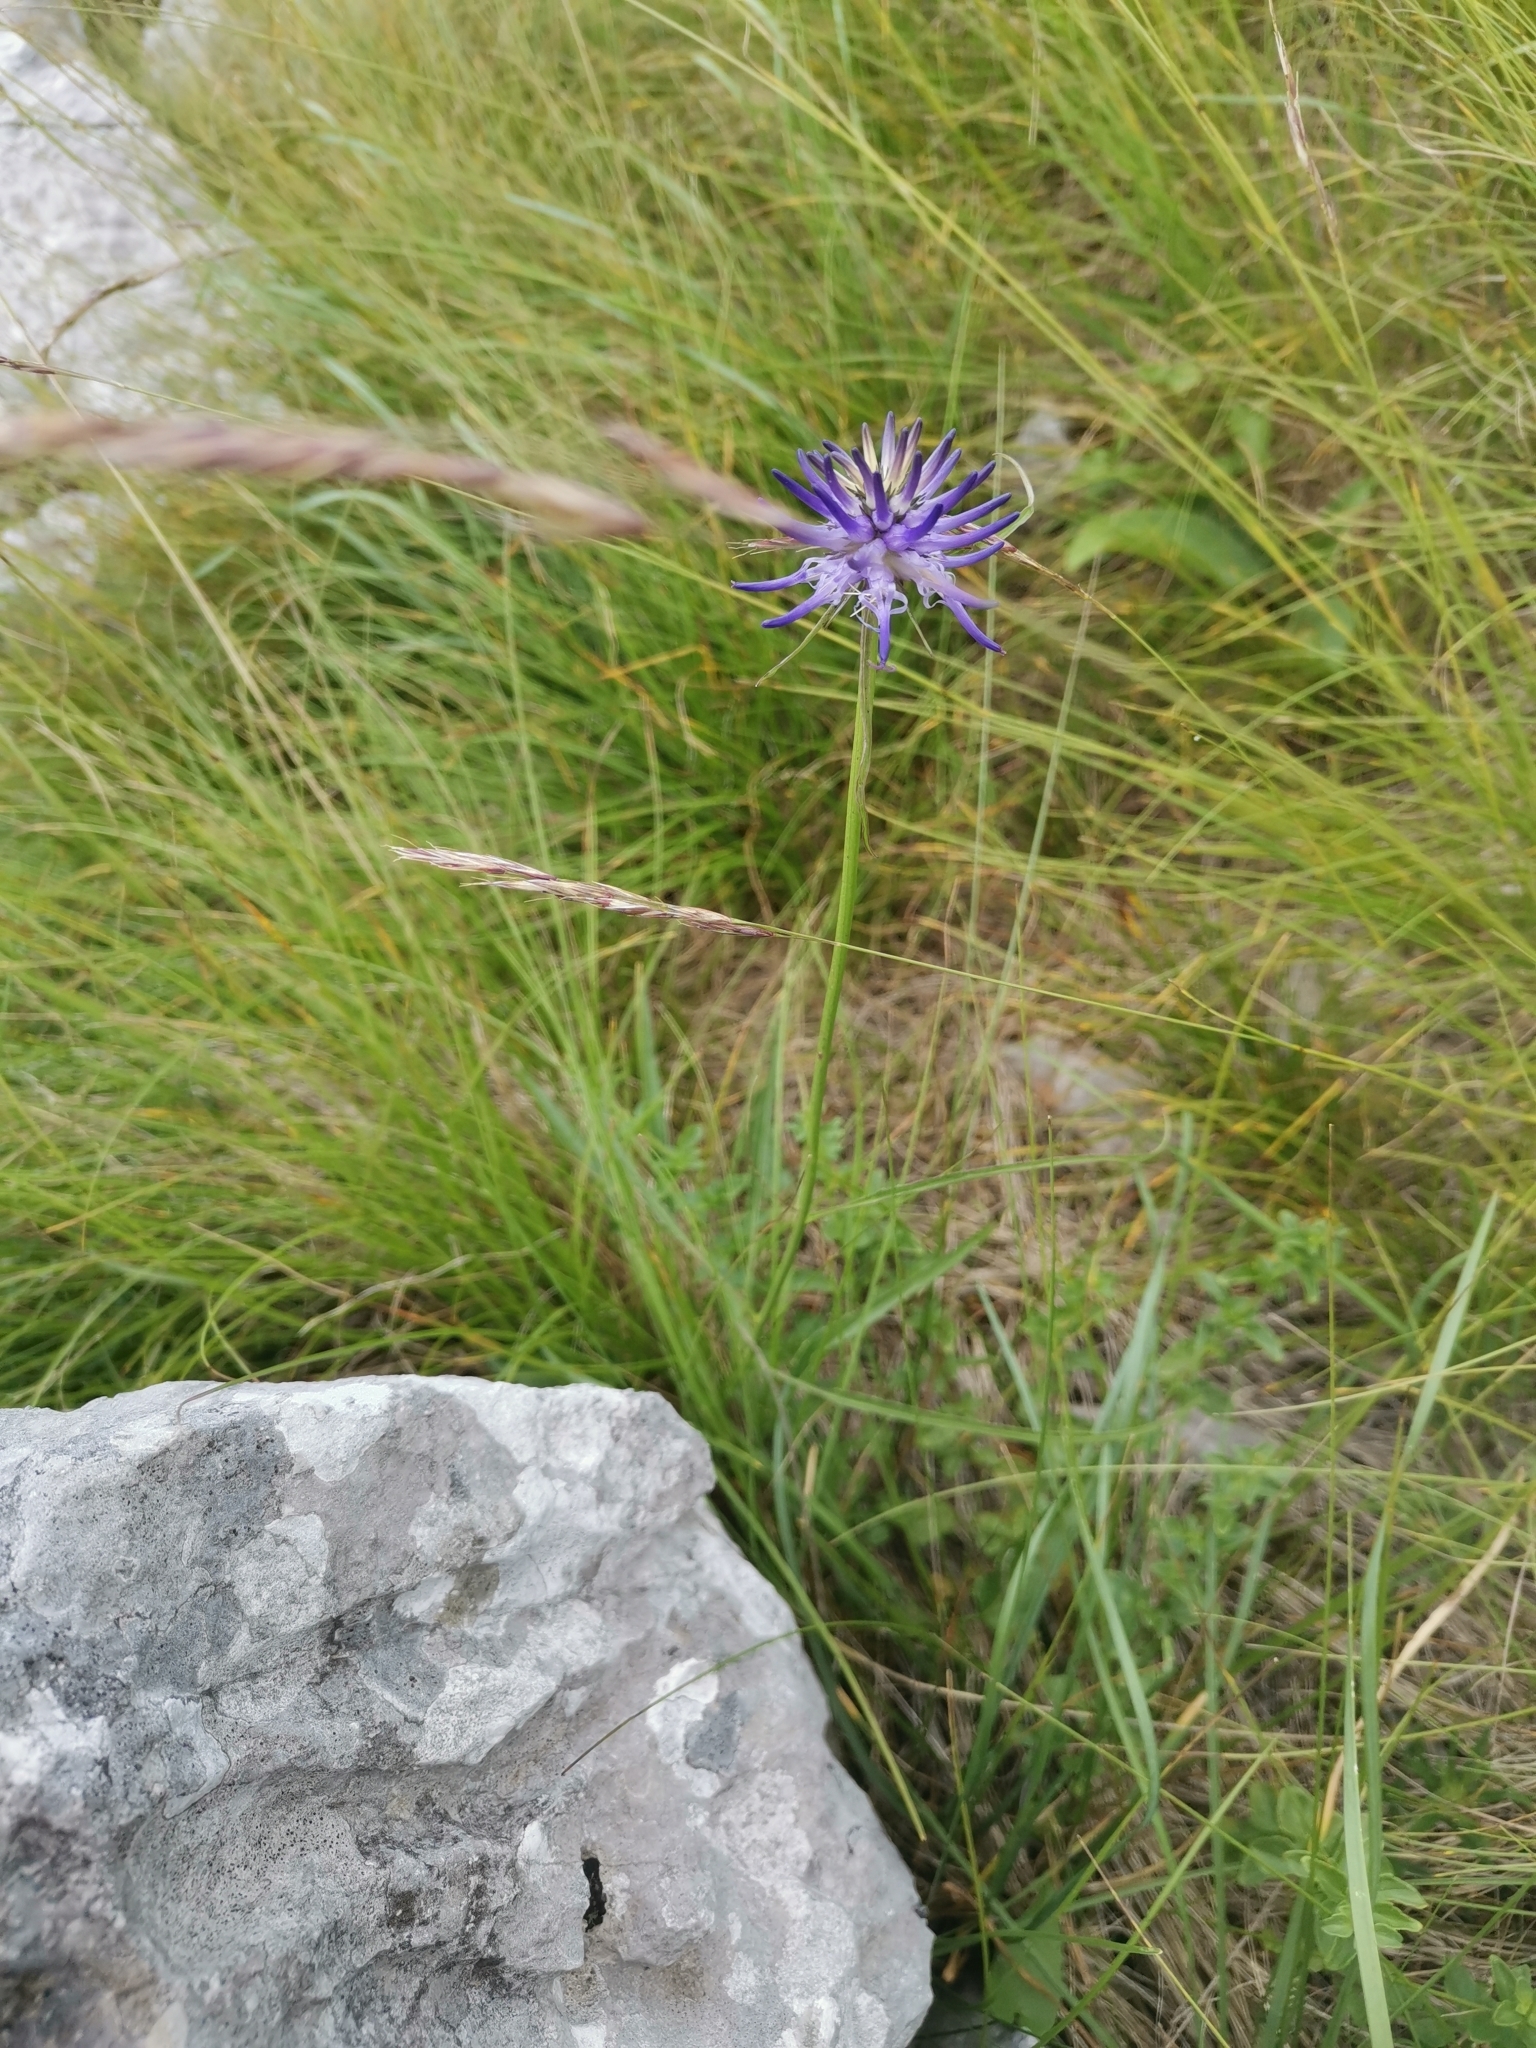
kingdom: Plantae
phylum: Tracheophyta
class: Magnoliopsida
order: Asterales
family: Campanulaceae
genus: Phyteuma
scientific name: Phyteuma scheuchzeri
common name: Oxford rampion
